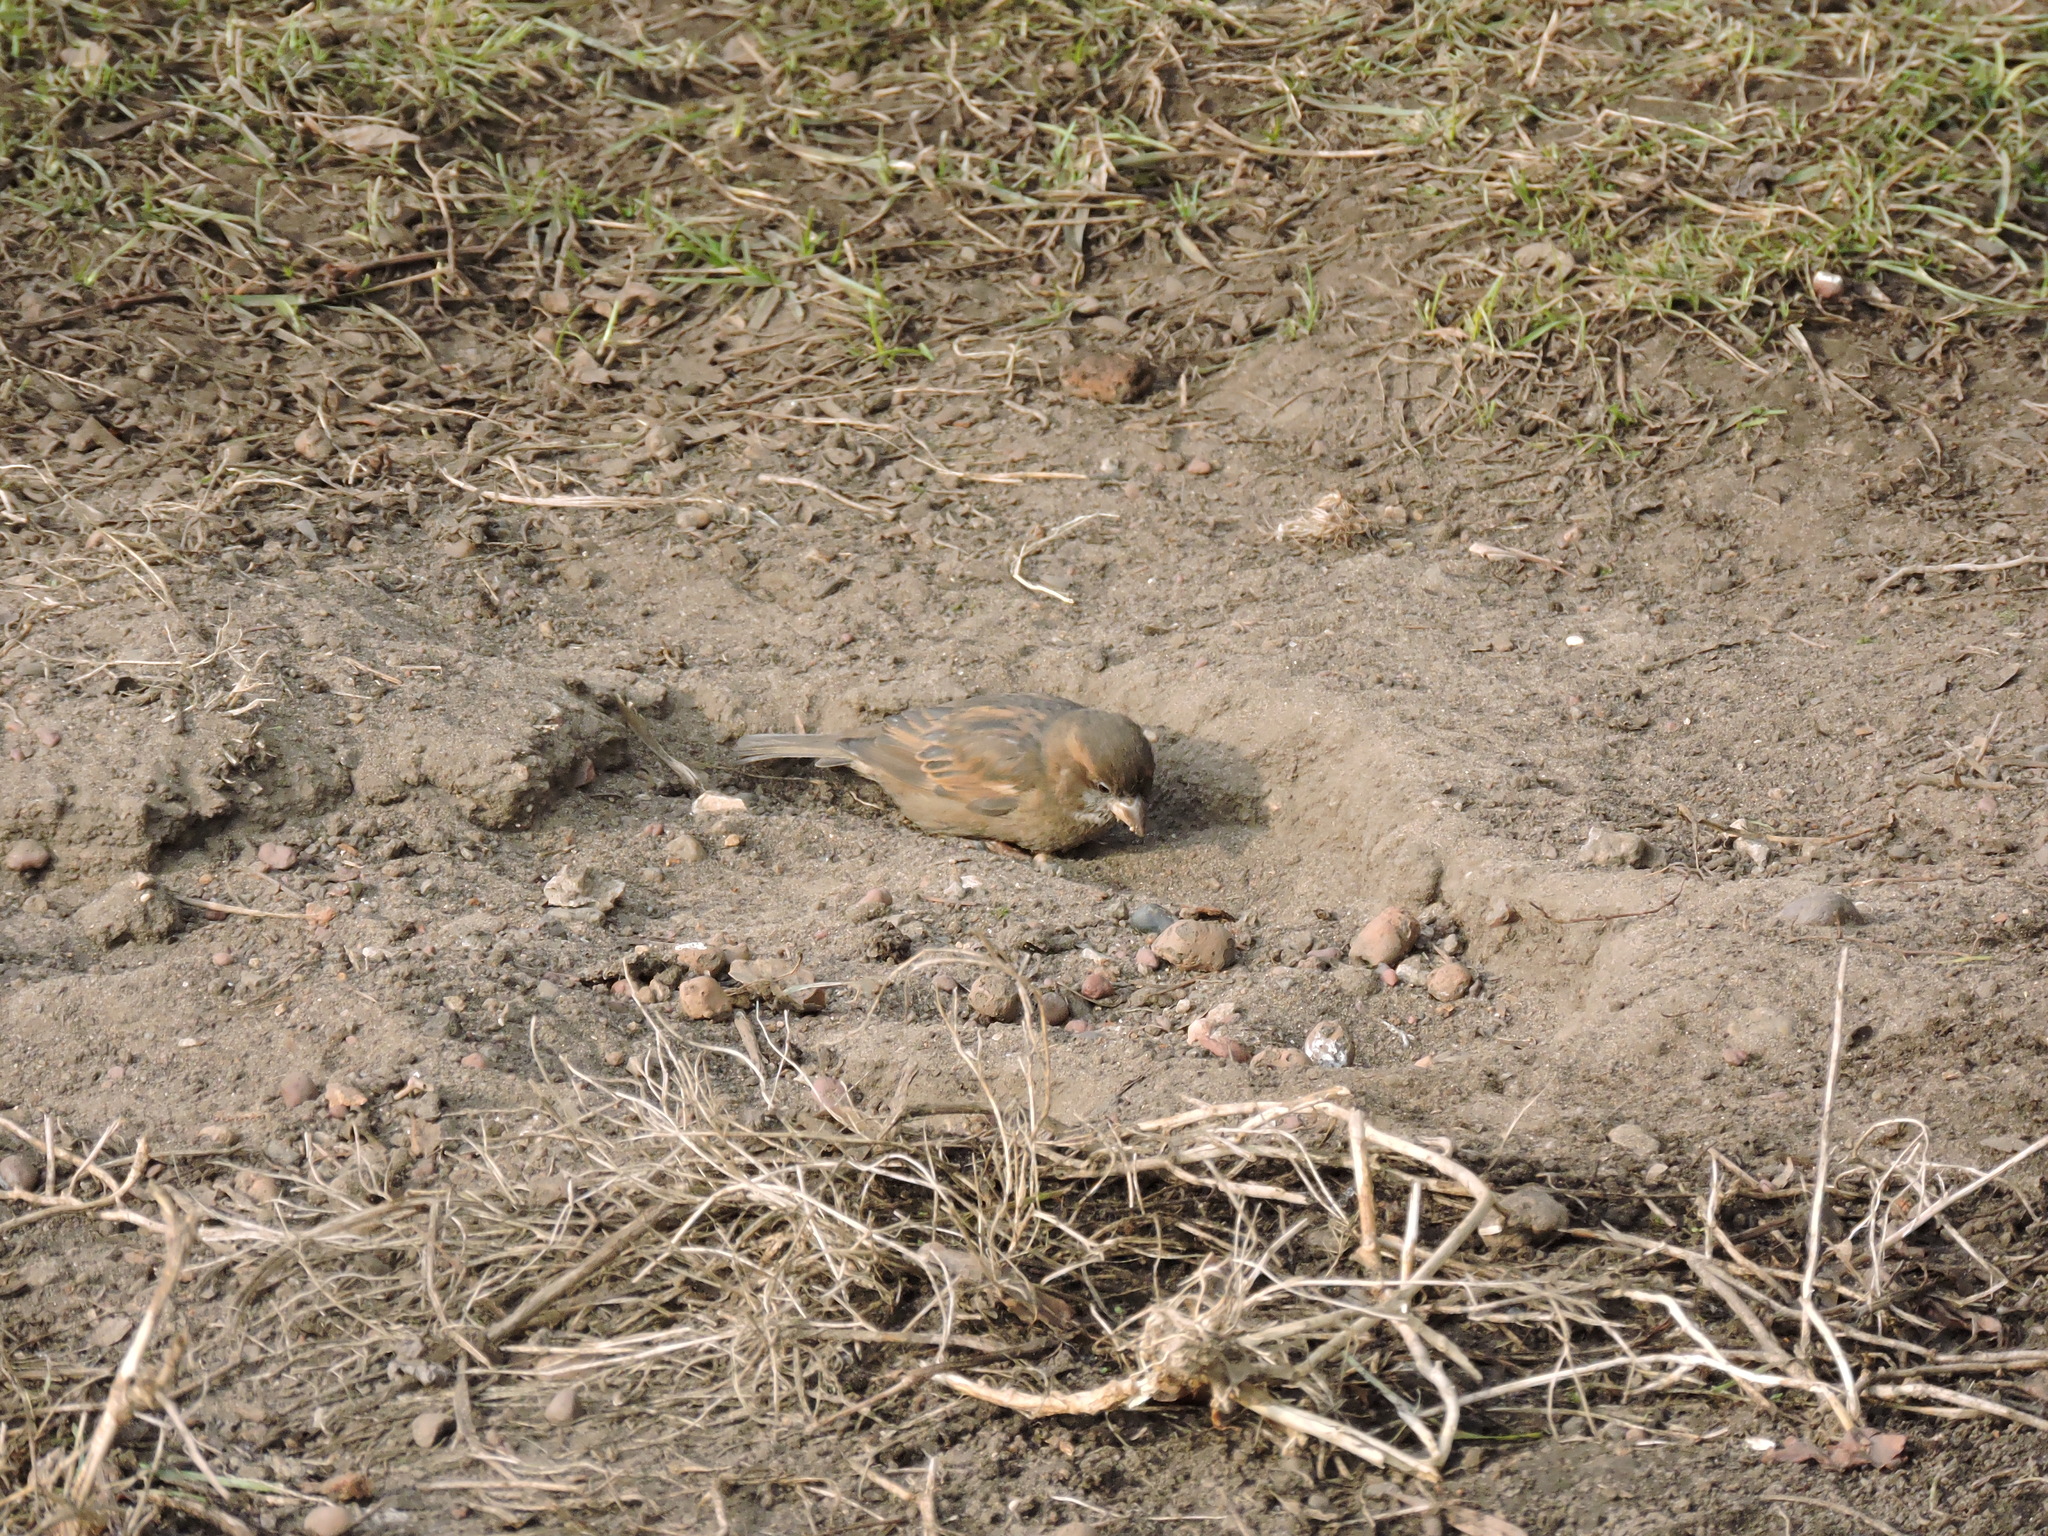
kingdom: Animalia
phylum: Chordata
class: Aves
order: Passeriformes
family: Passeridae
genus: Passer
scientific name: Passer domesticus
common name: House sparrow
